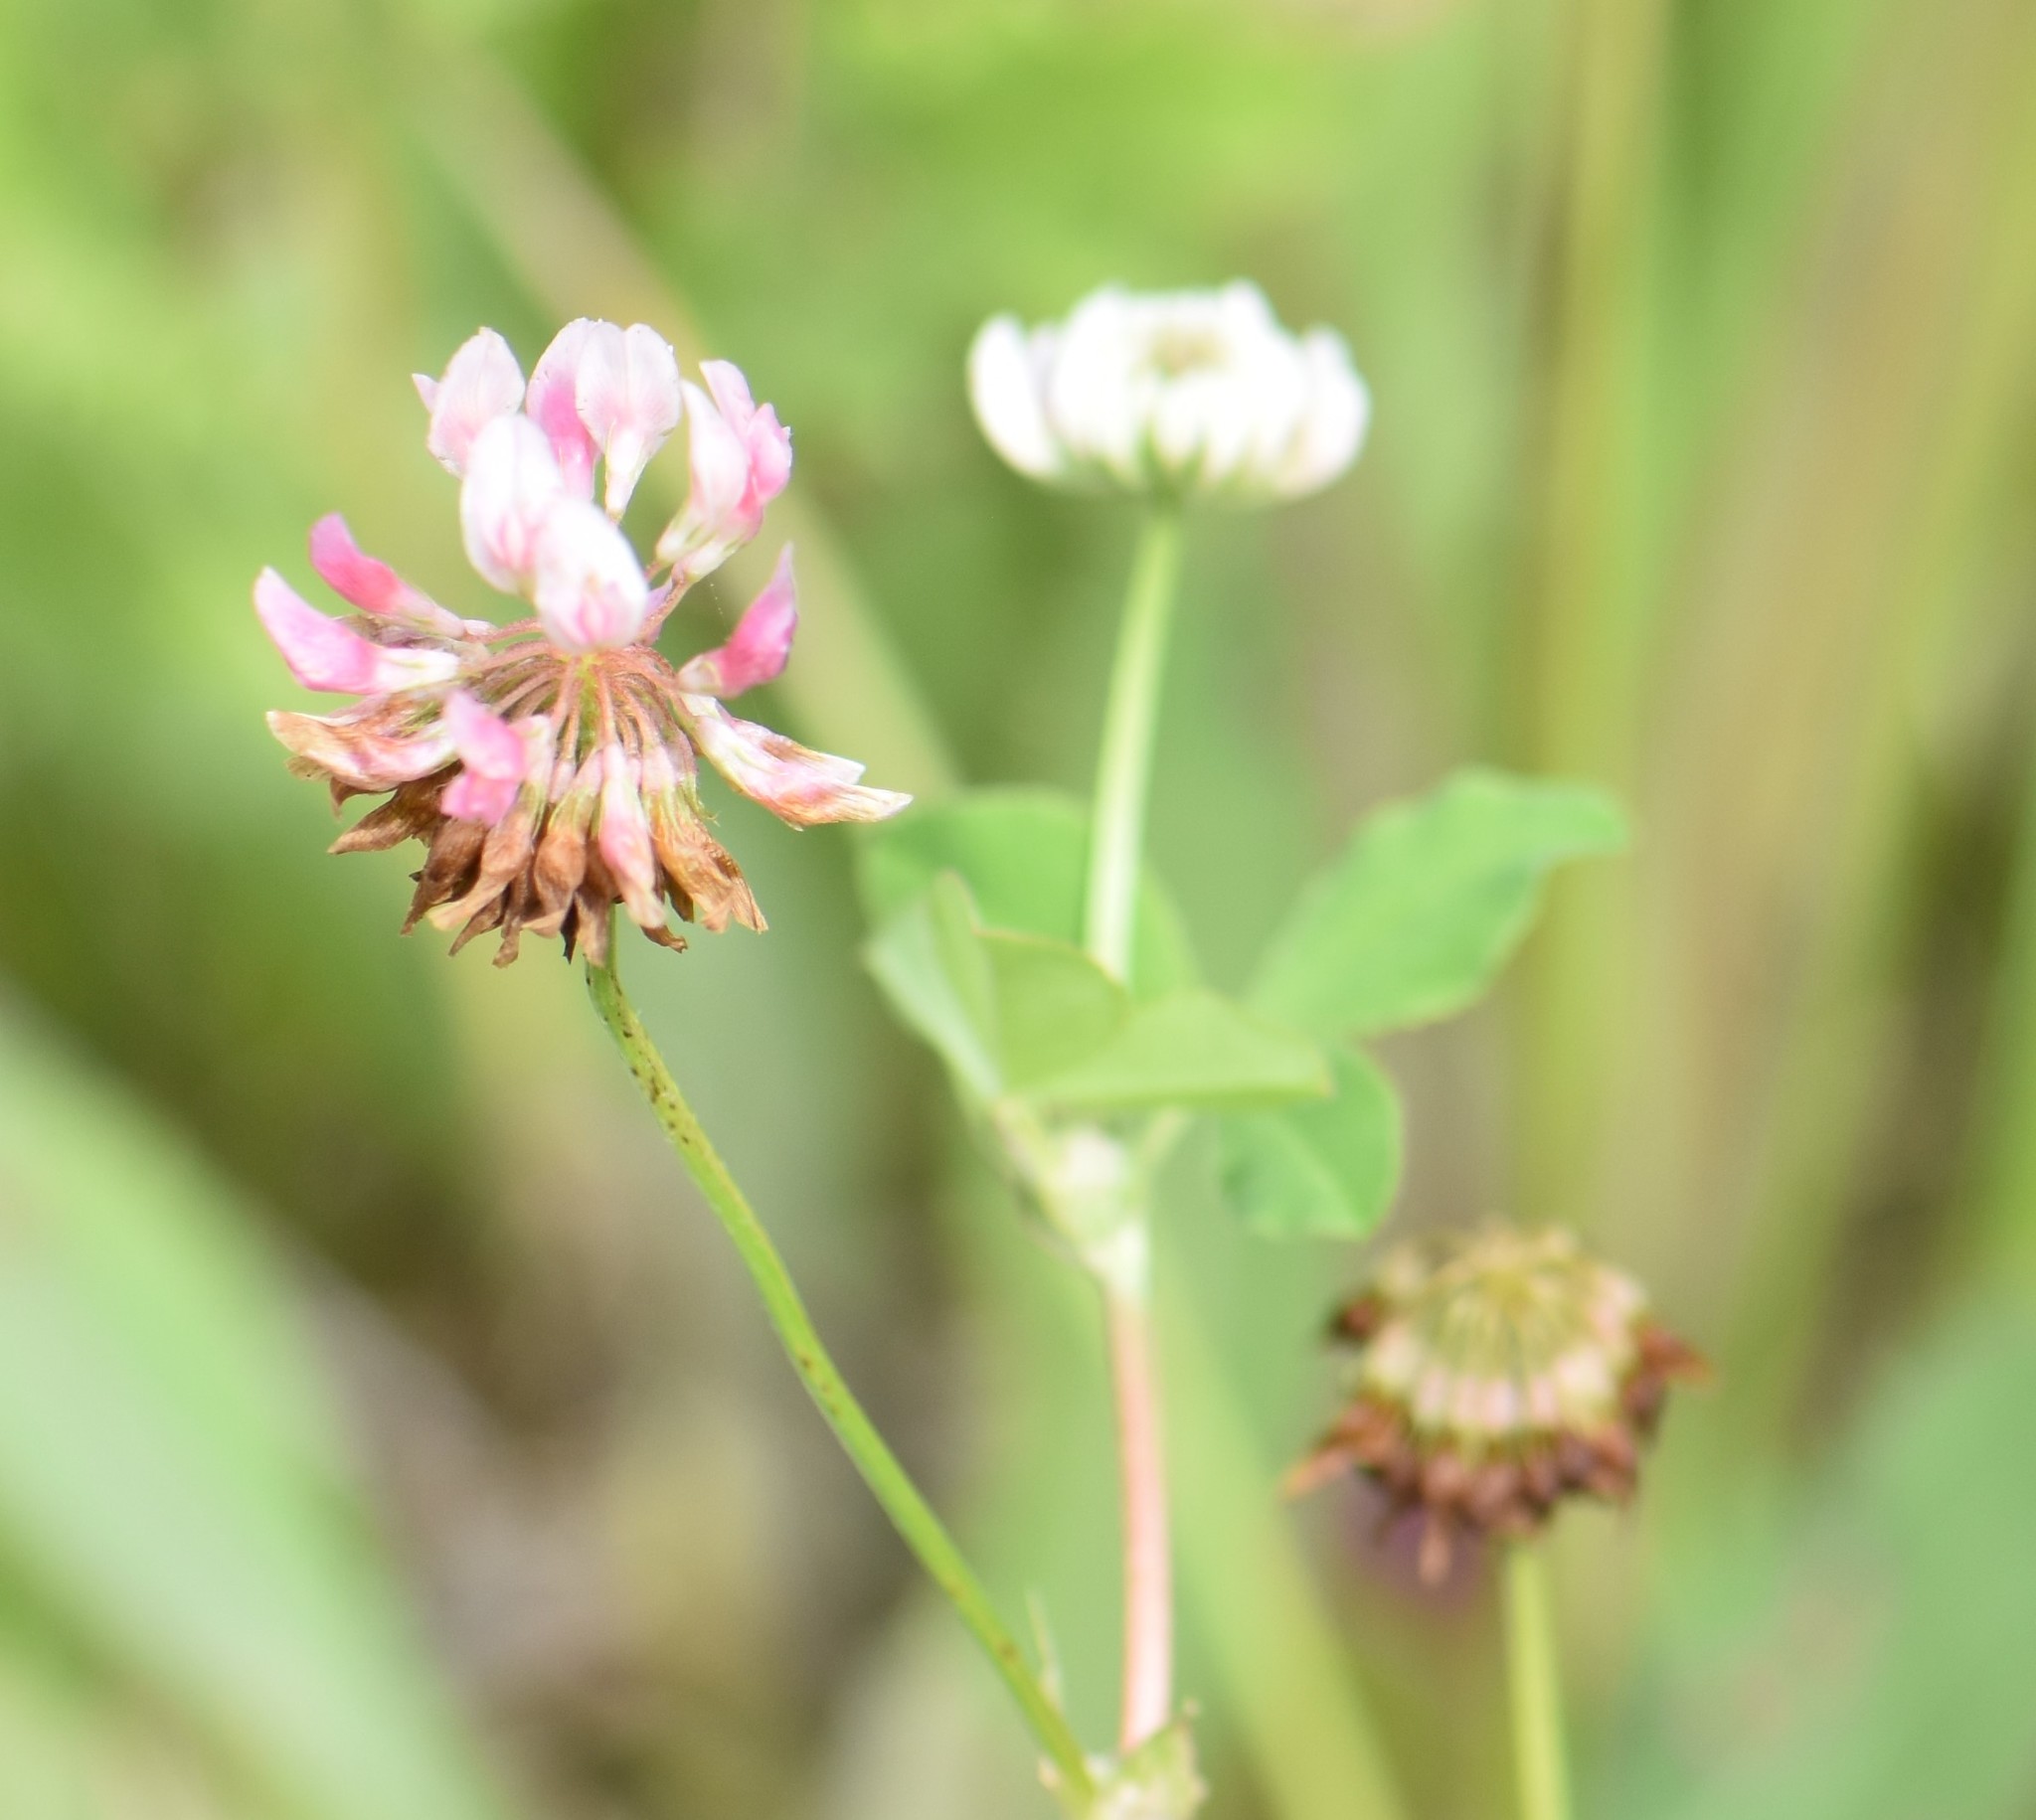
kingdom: Plantae
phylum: Tracheophyta
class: Magnoliopsida
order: Fabales
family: Fabaceae
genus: Trifolium
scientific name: Trifolium hybridum
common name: Alsike clover
